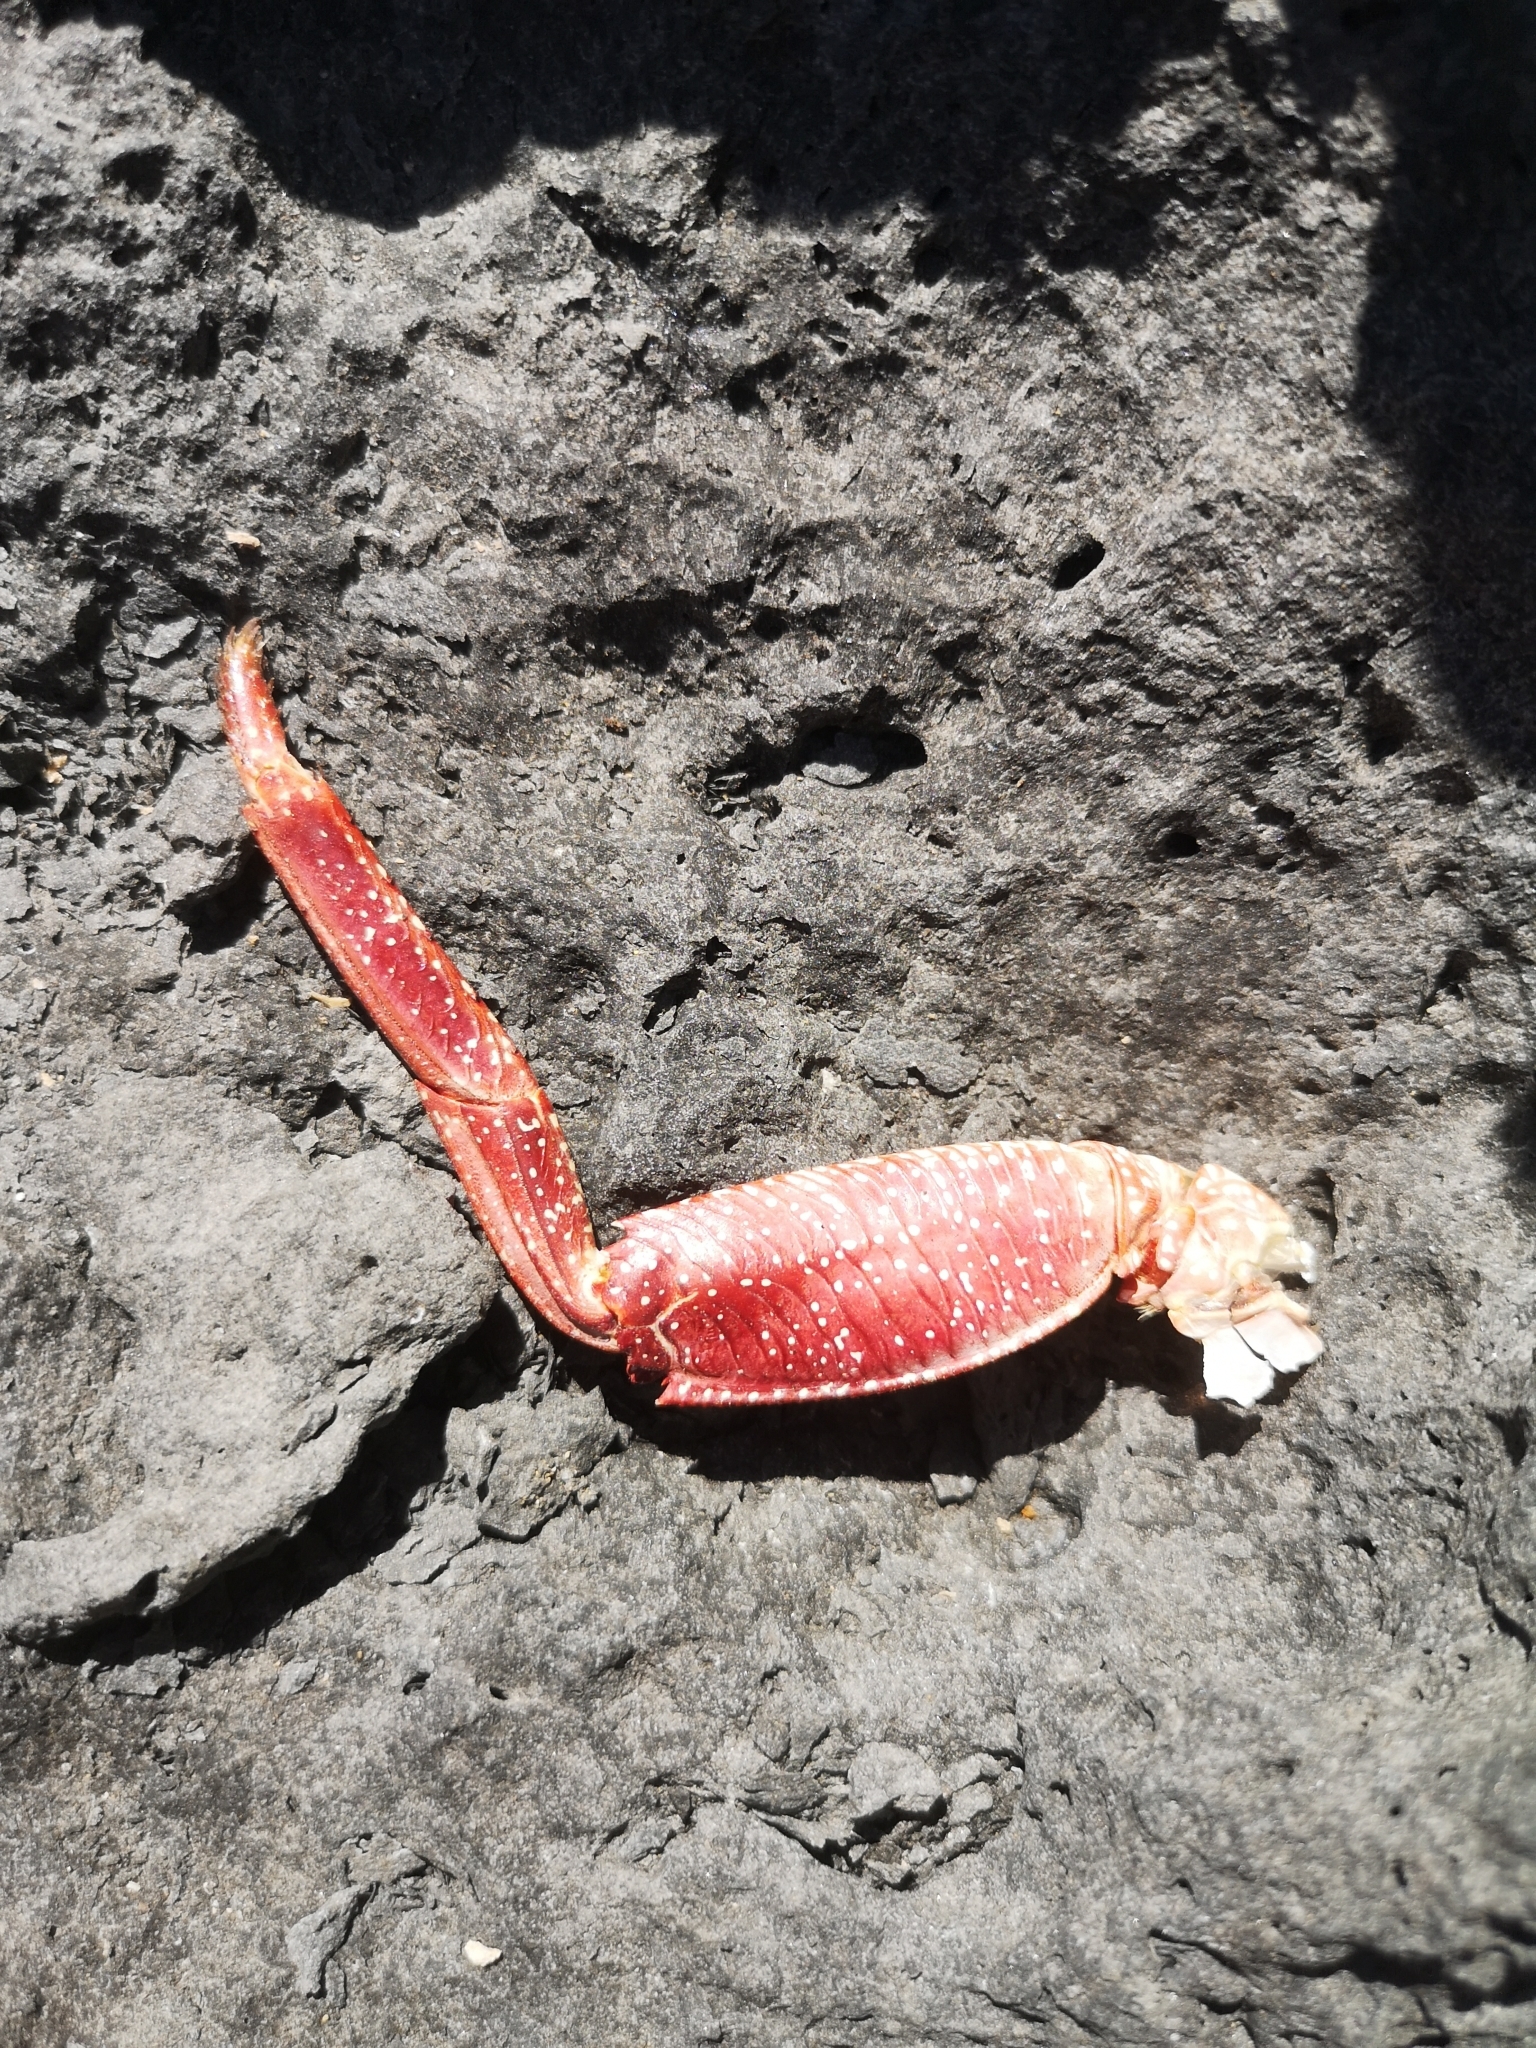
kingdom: Animalia
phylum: Arthropoda
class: Malacostraca
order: Decapoda
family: Grapsidae
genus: Grapsus
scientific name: Grapsus adscensionis
